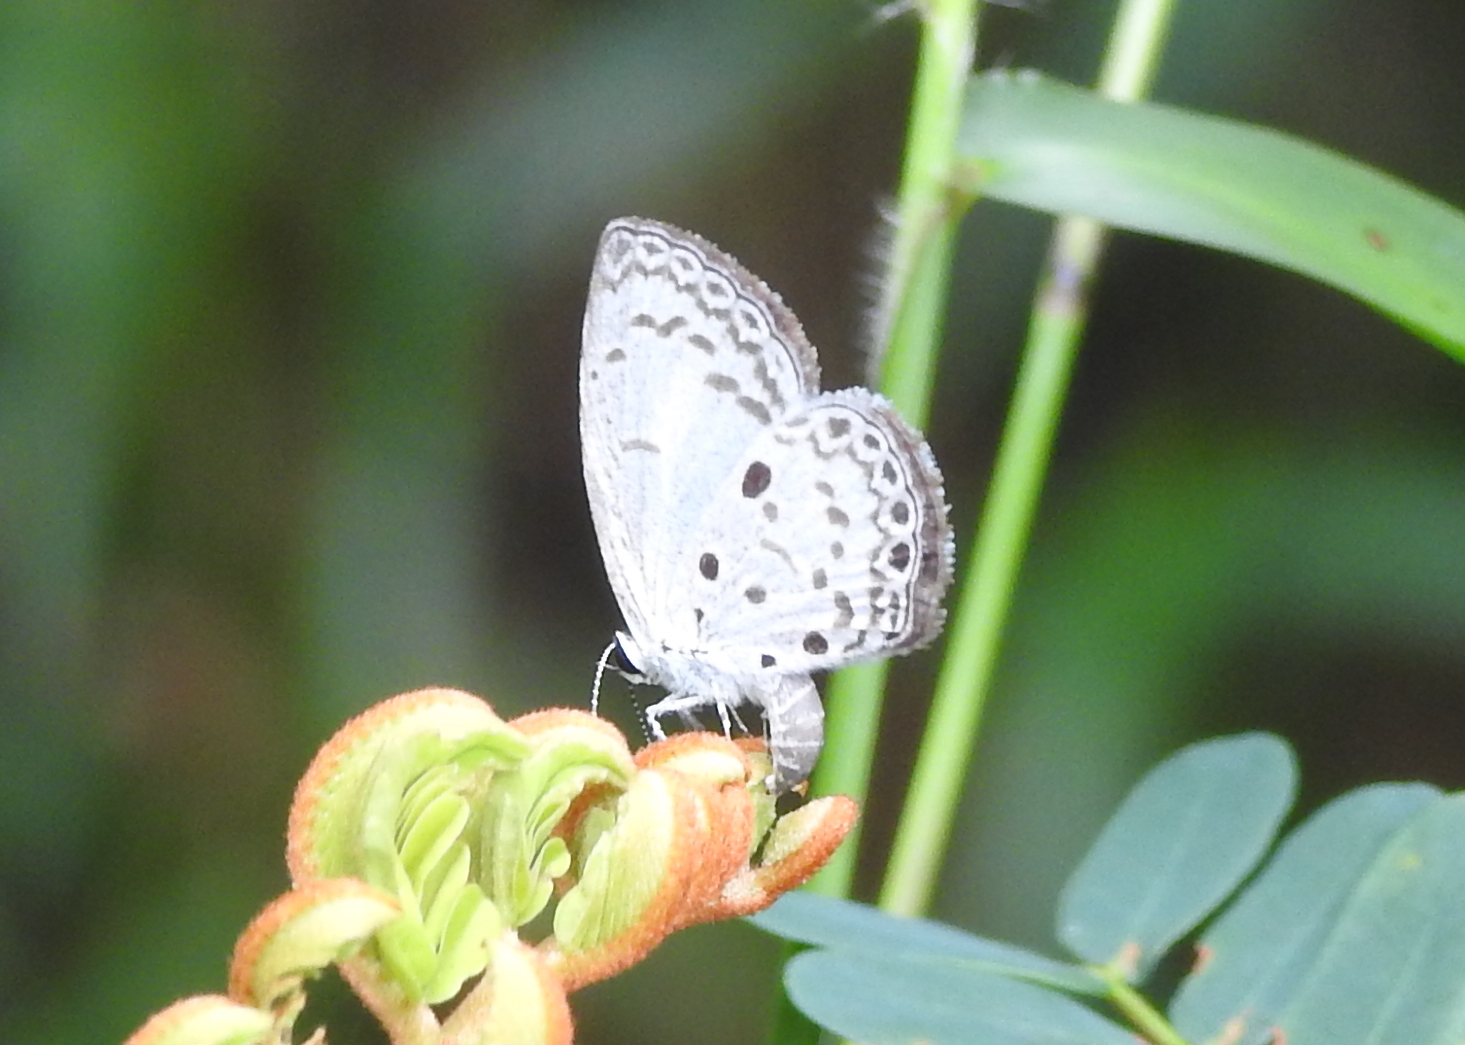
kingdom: Animalia
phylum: Arthropoda
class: Insecta
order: Lepidoptera
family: Lycaenidae
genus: Acytolepis
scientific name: Acytolepis puspa
